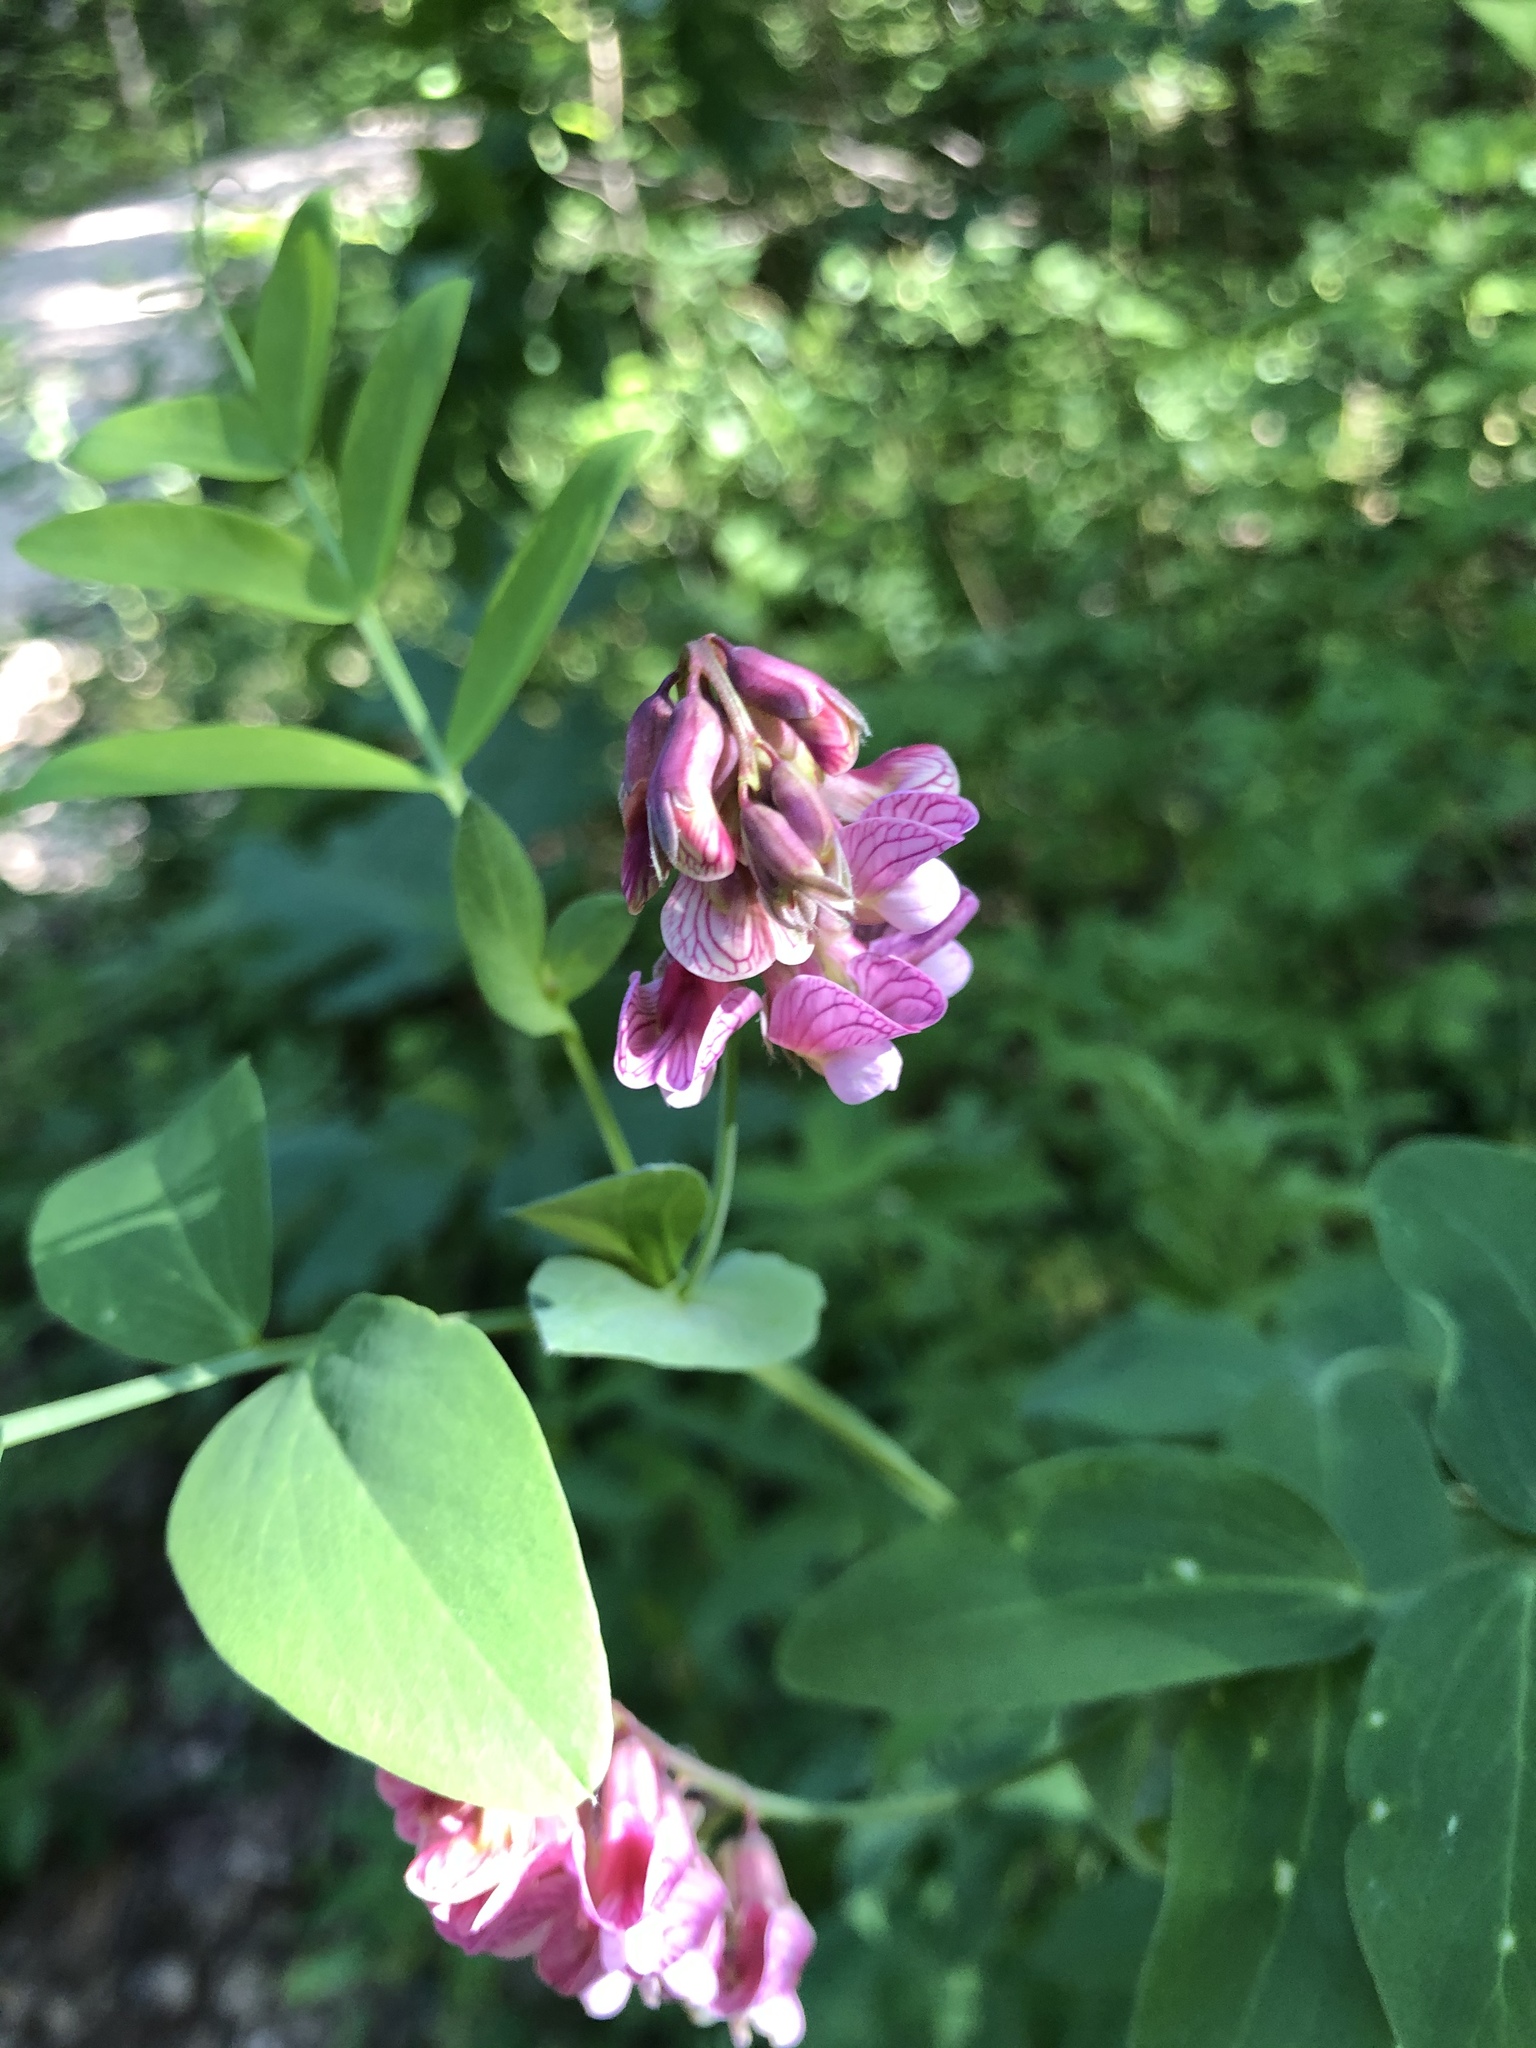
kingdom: Plantae
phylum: Tracheophyta
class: Magnoliopsida
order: Fabales
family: Fabaceae
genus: Lathyrus
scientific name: Lathyrus pisiformis
